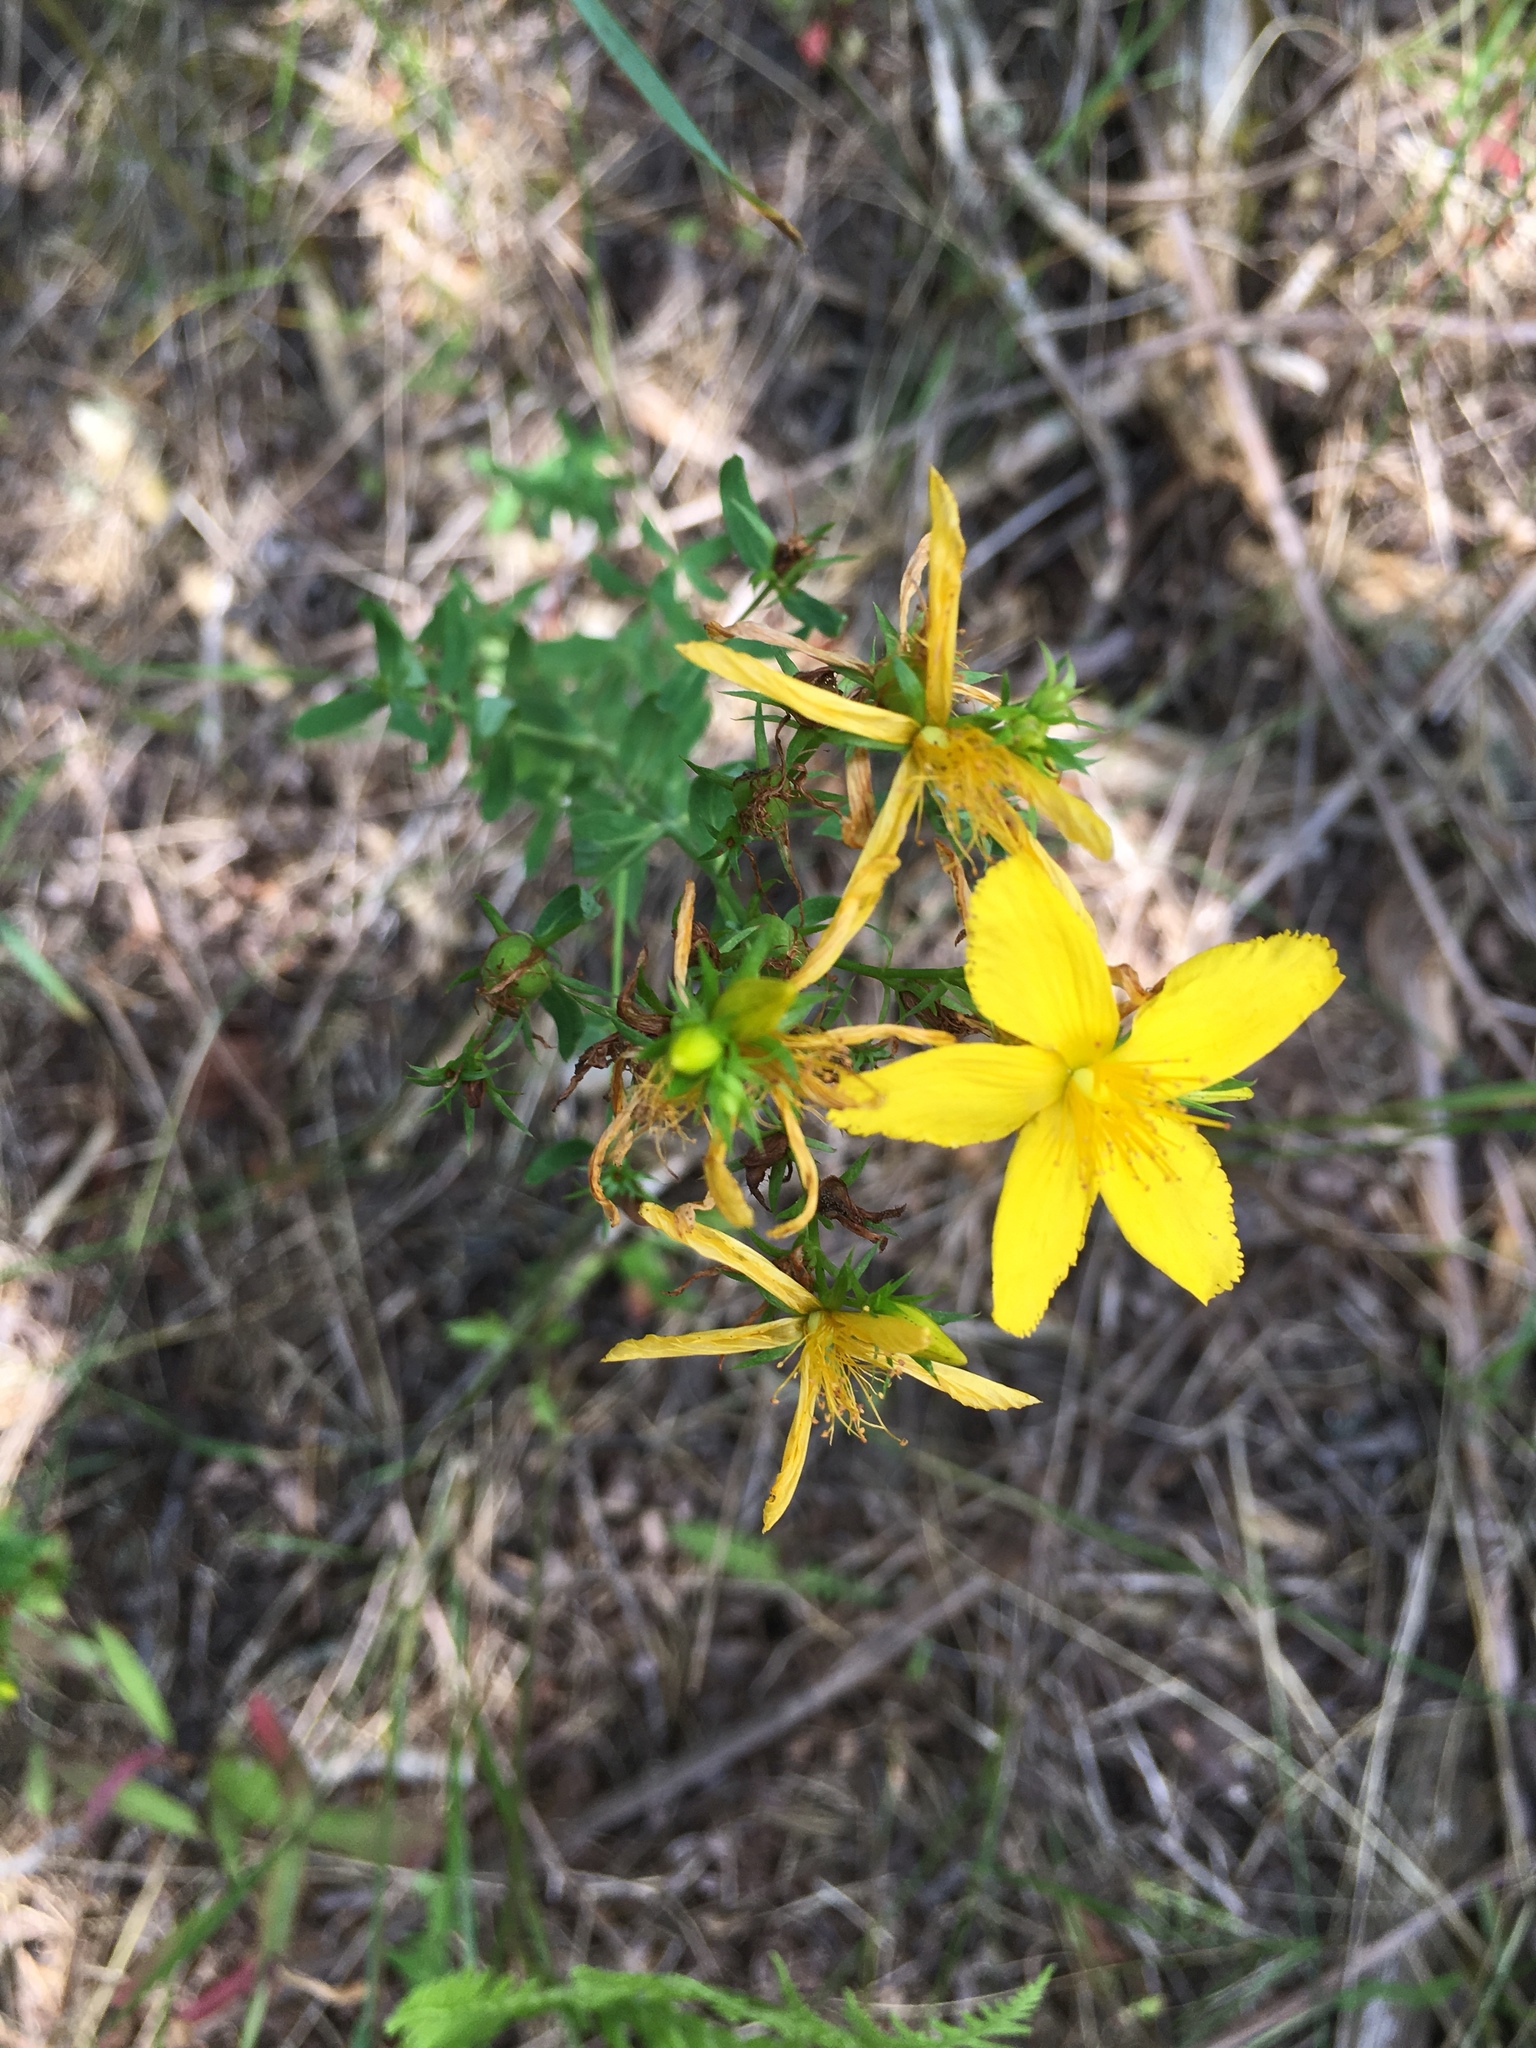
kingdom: Plantae
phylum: Tracheophyta
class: Magnoliopsida
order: Malpighiales
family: Hypericaceae
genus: Hypericum
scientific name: Hypericum perforatum
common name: Common st. johnswort
